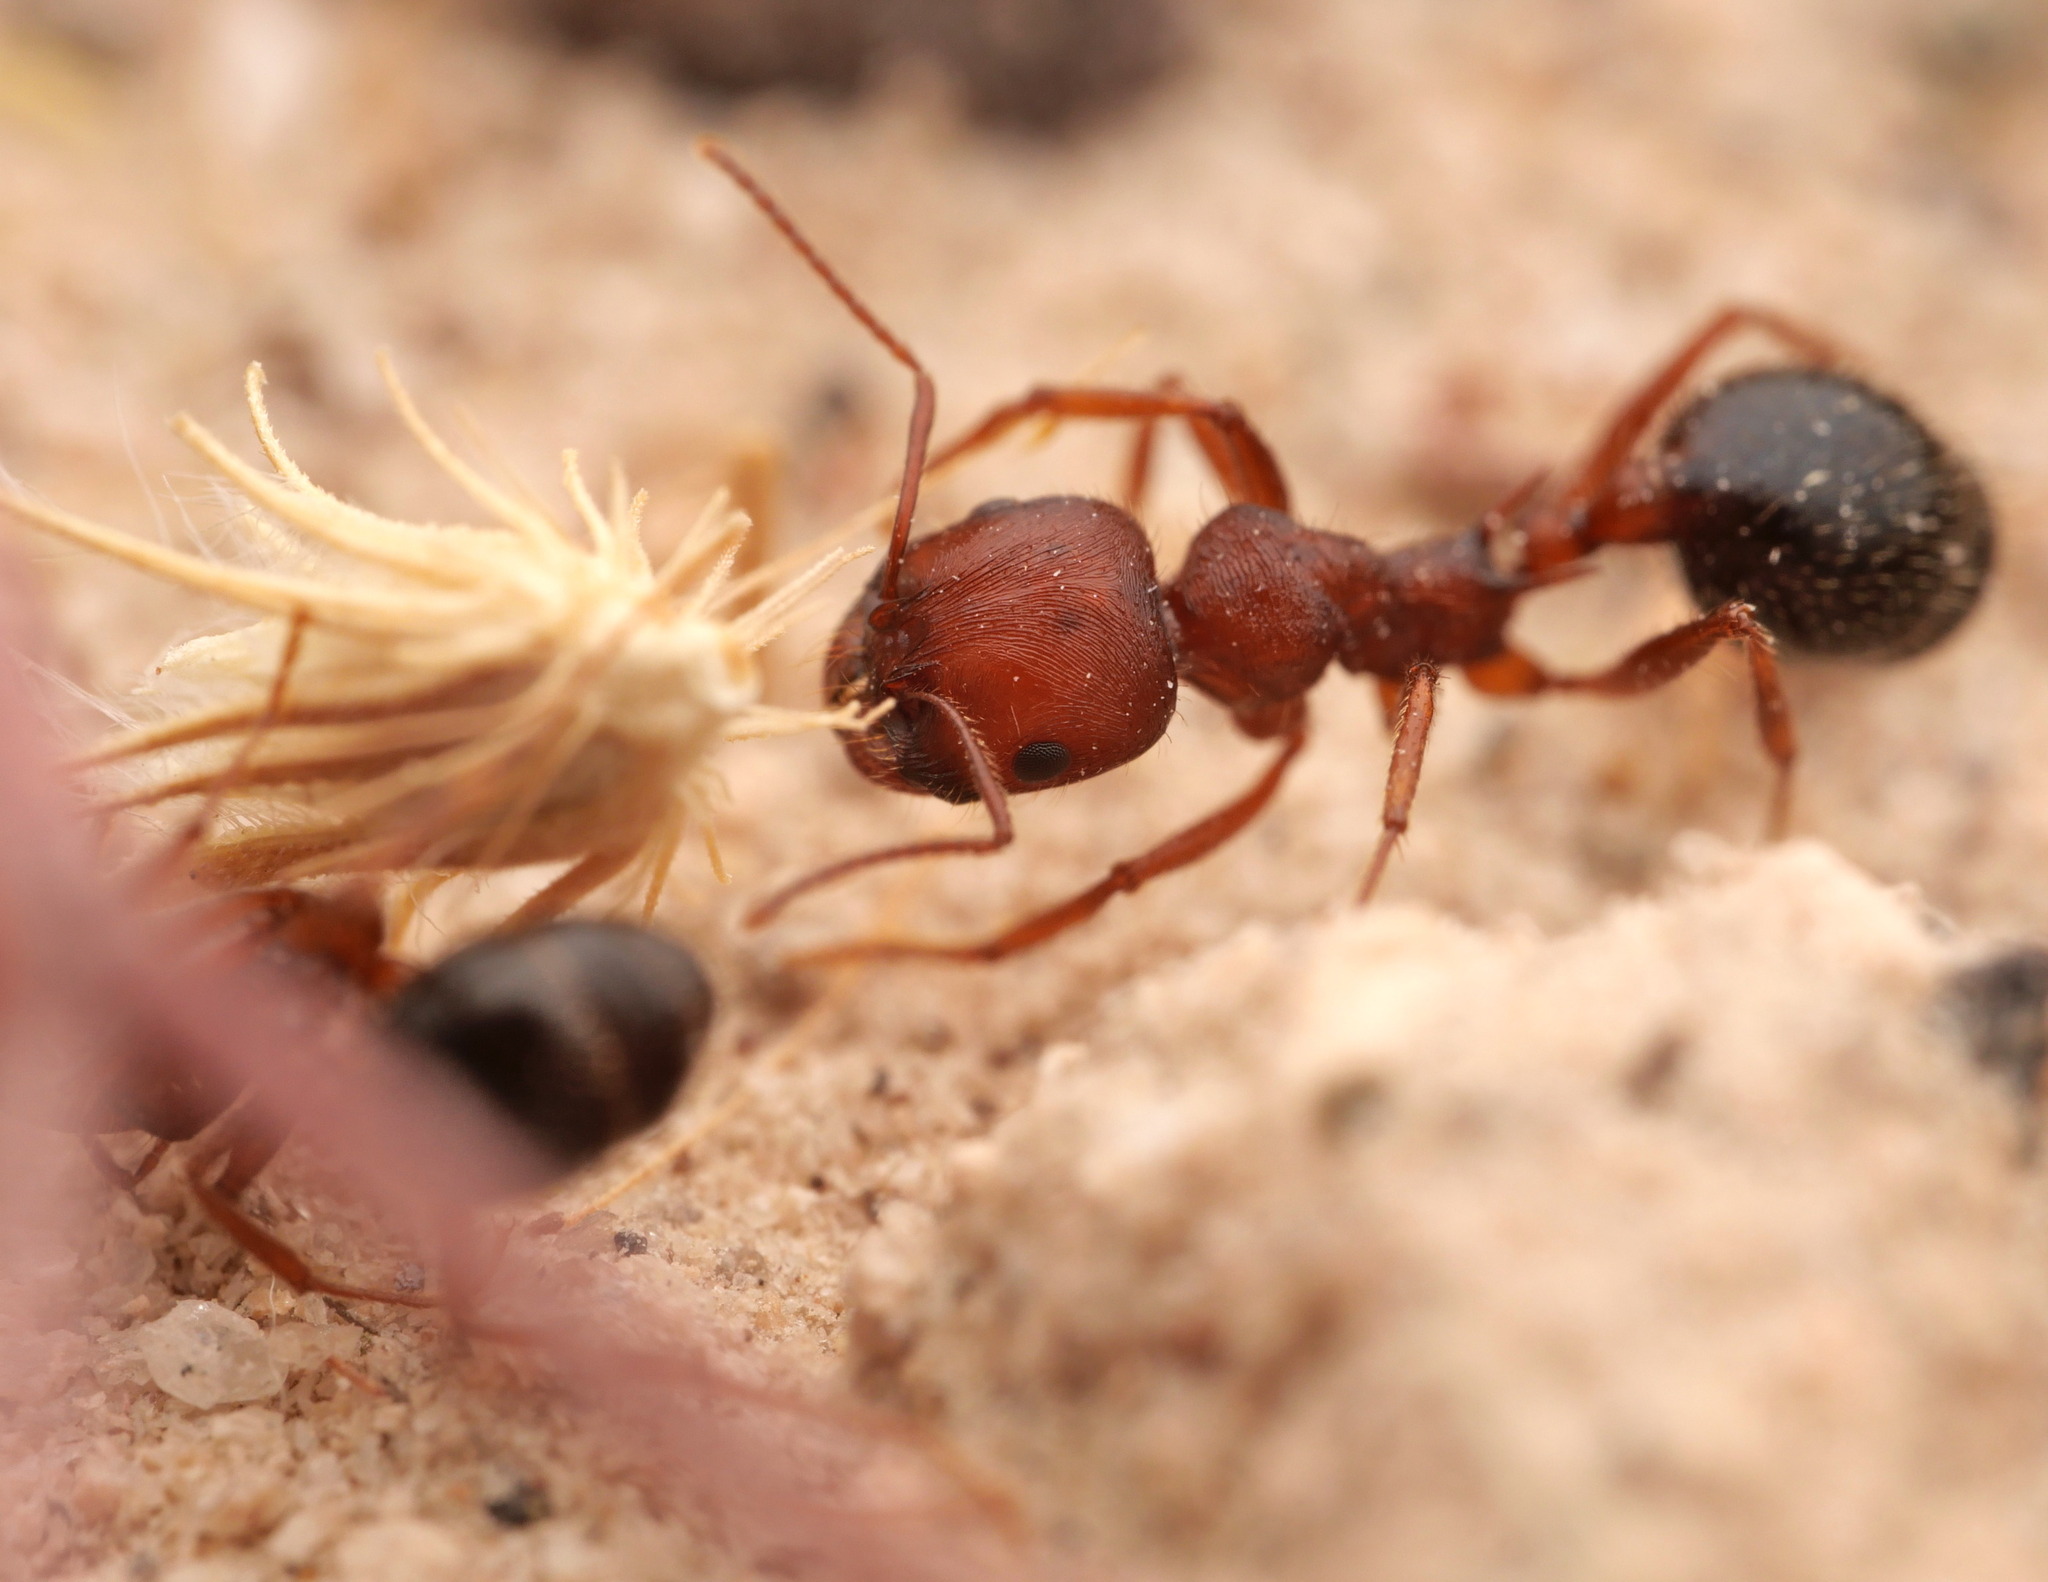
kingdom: Animalia
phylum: Arthropoda
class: Insecta
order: Hymenoptera
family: Formicidae
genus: Messor
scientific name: Messor julianus
